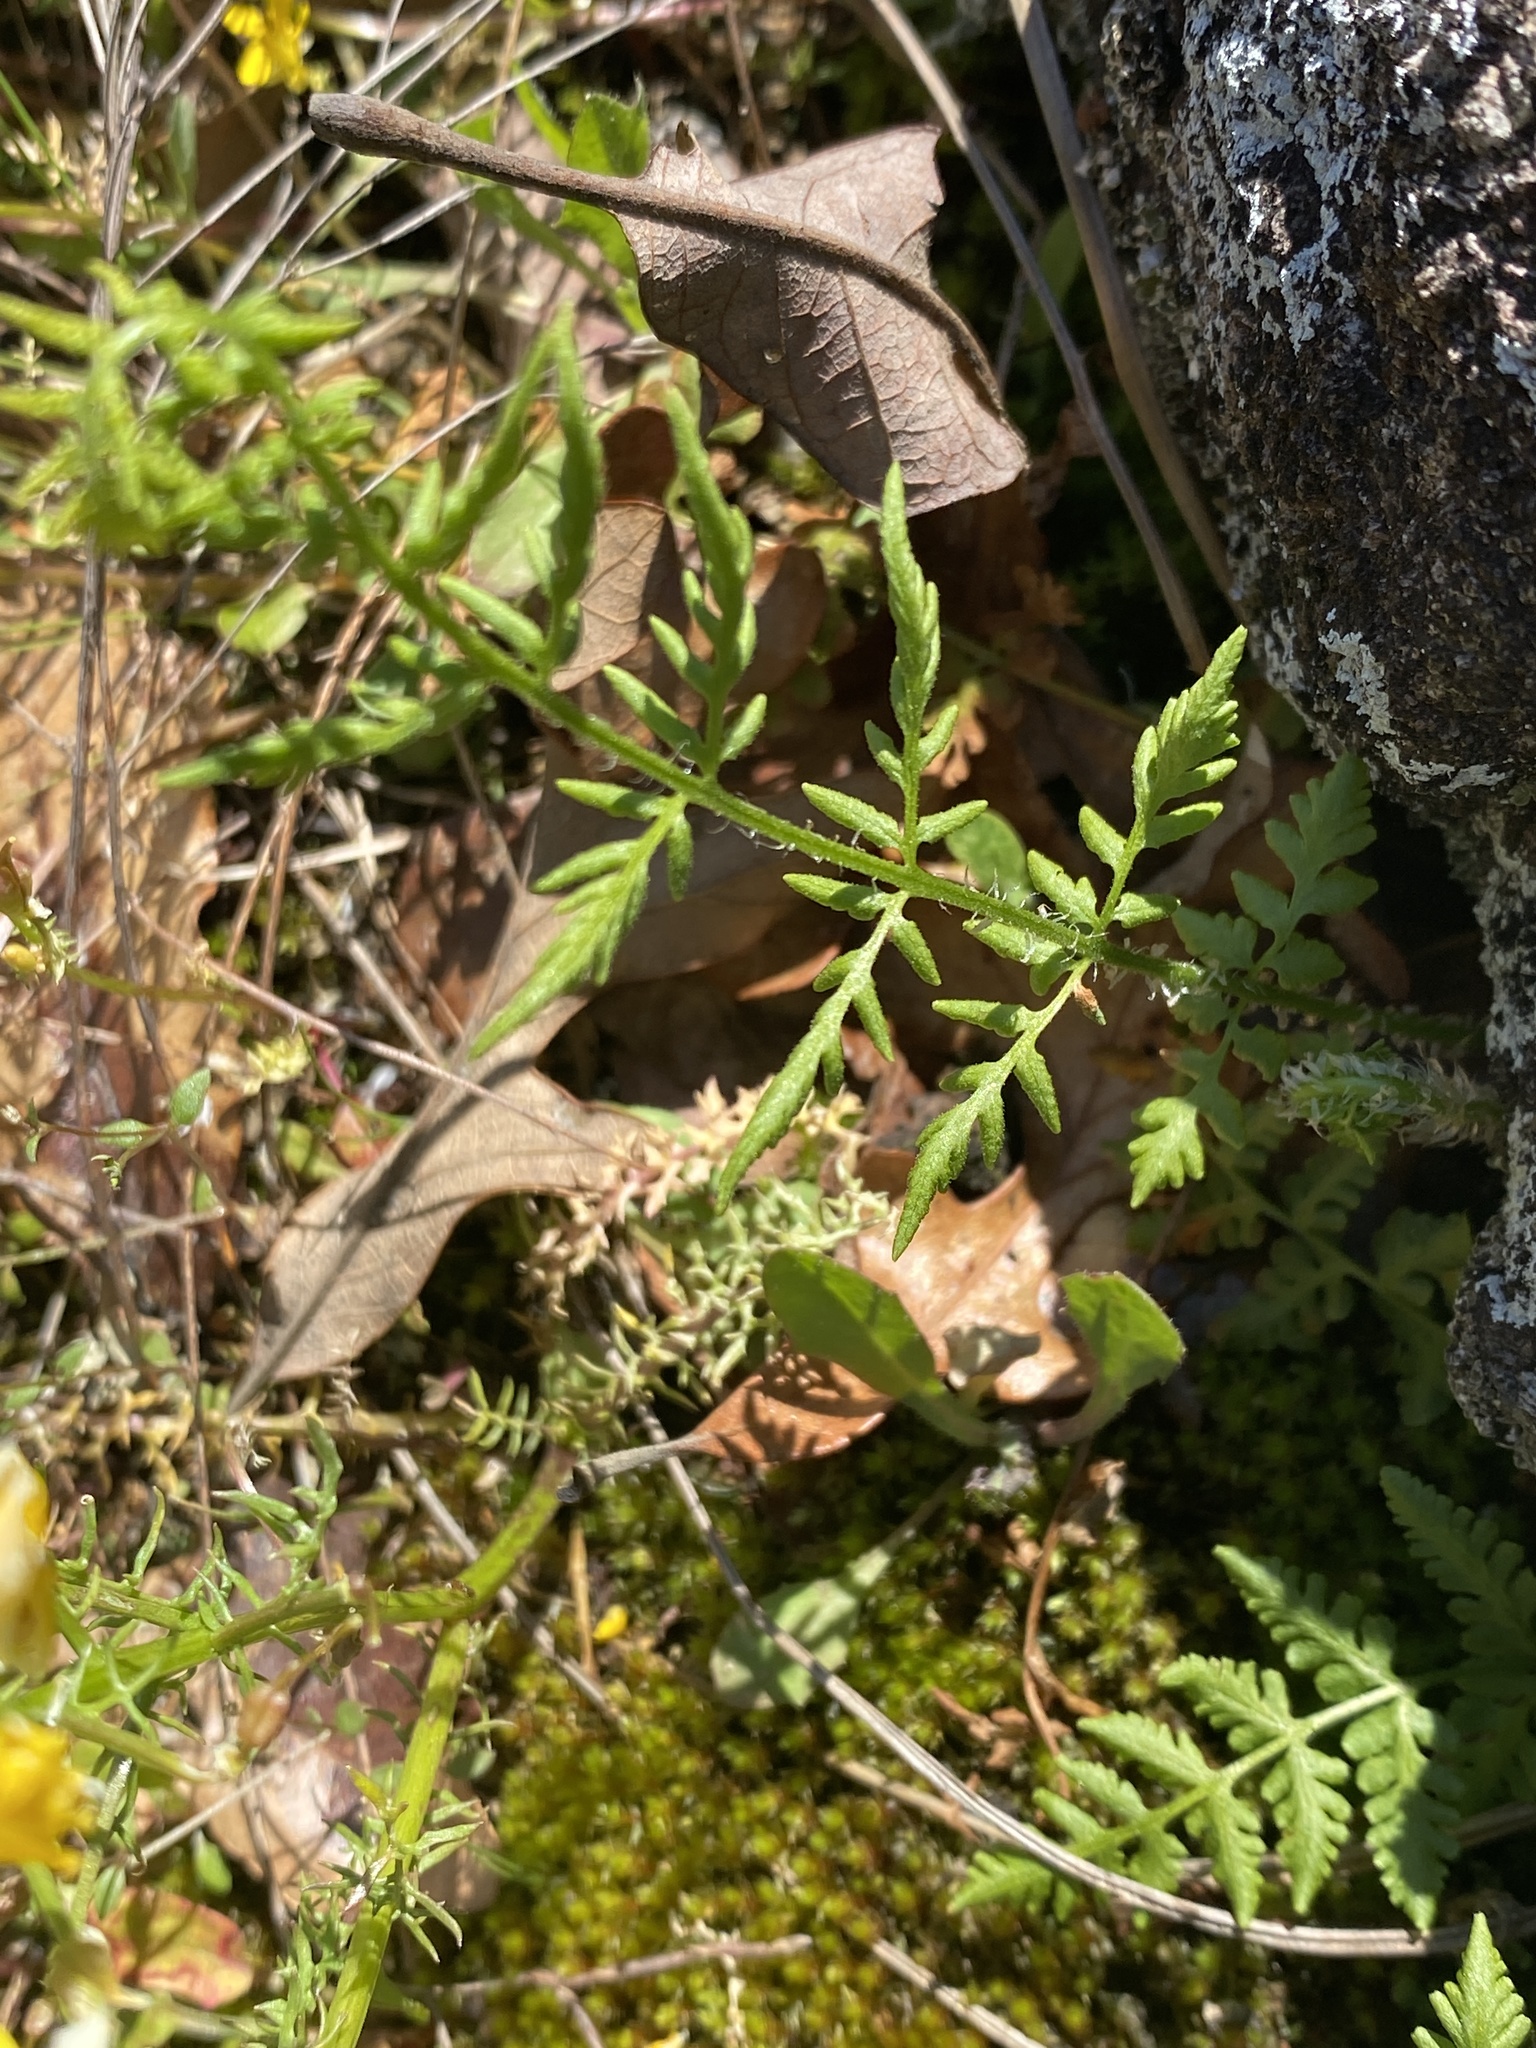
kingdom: Plantae
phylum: Tracheophyta
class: Polypodiopsida
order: Polypodiales
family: Woodsiaceae
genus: Physematium
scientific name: Physematium obtusum
